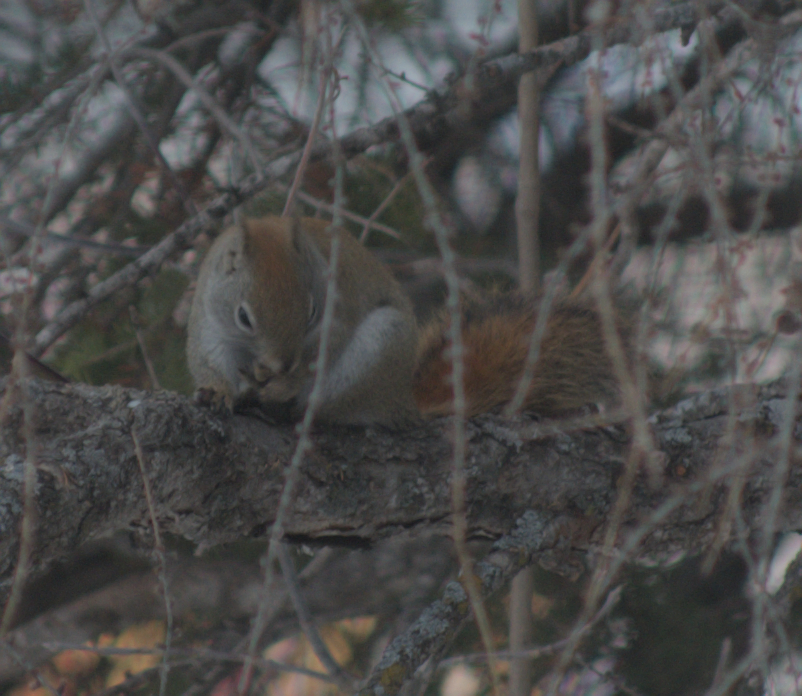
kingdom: Animalia
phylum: Chordata
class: Mammalia
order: Rodentia
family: Sciuridae
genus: Tamiasciurus
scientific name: Tamiasciurus hudsonicus
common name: Red squirrel
